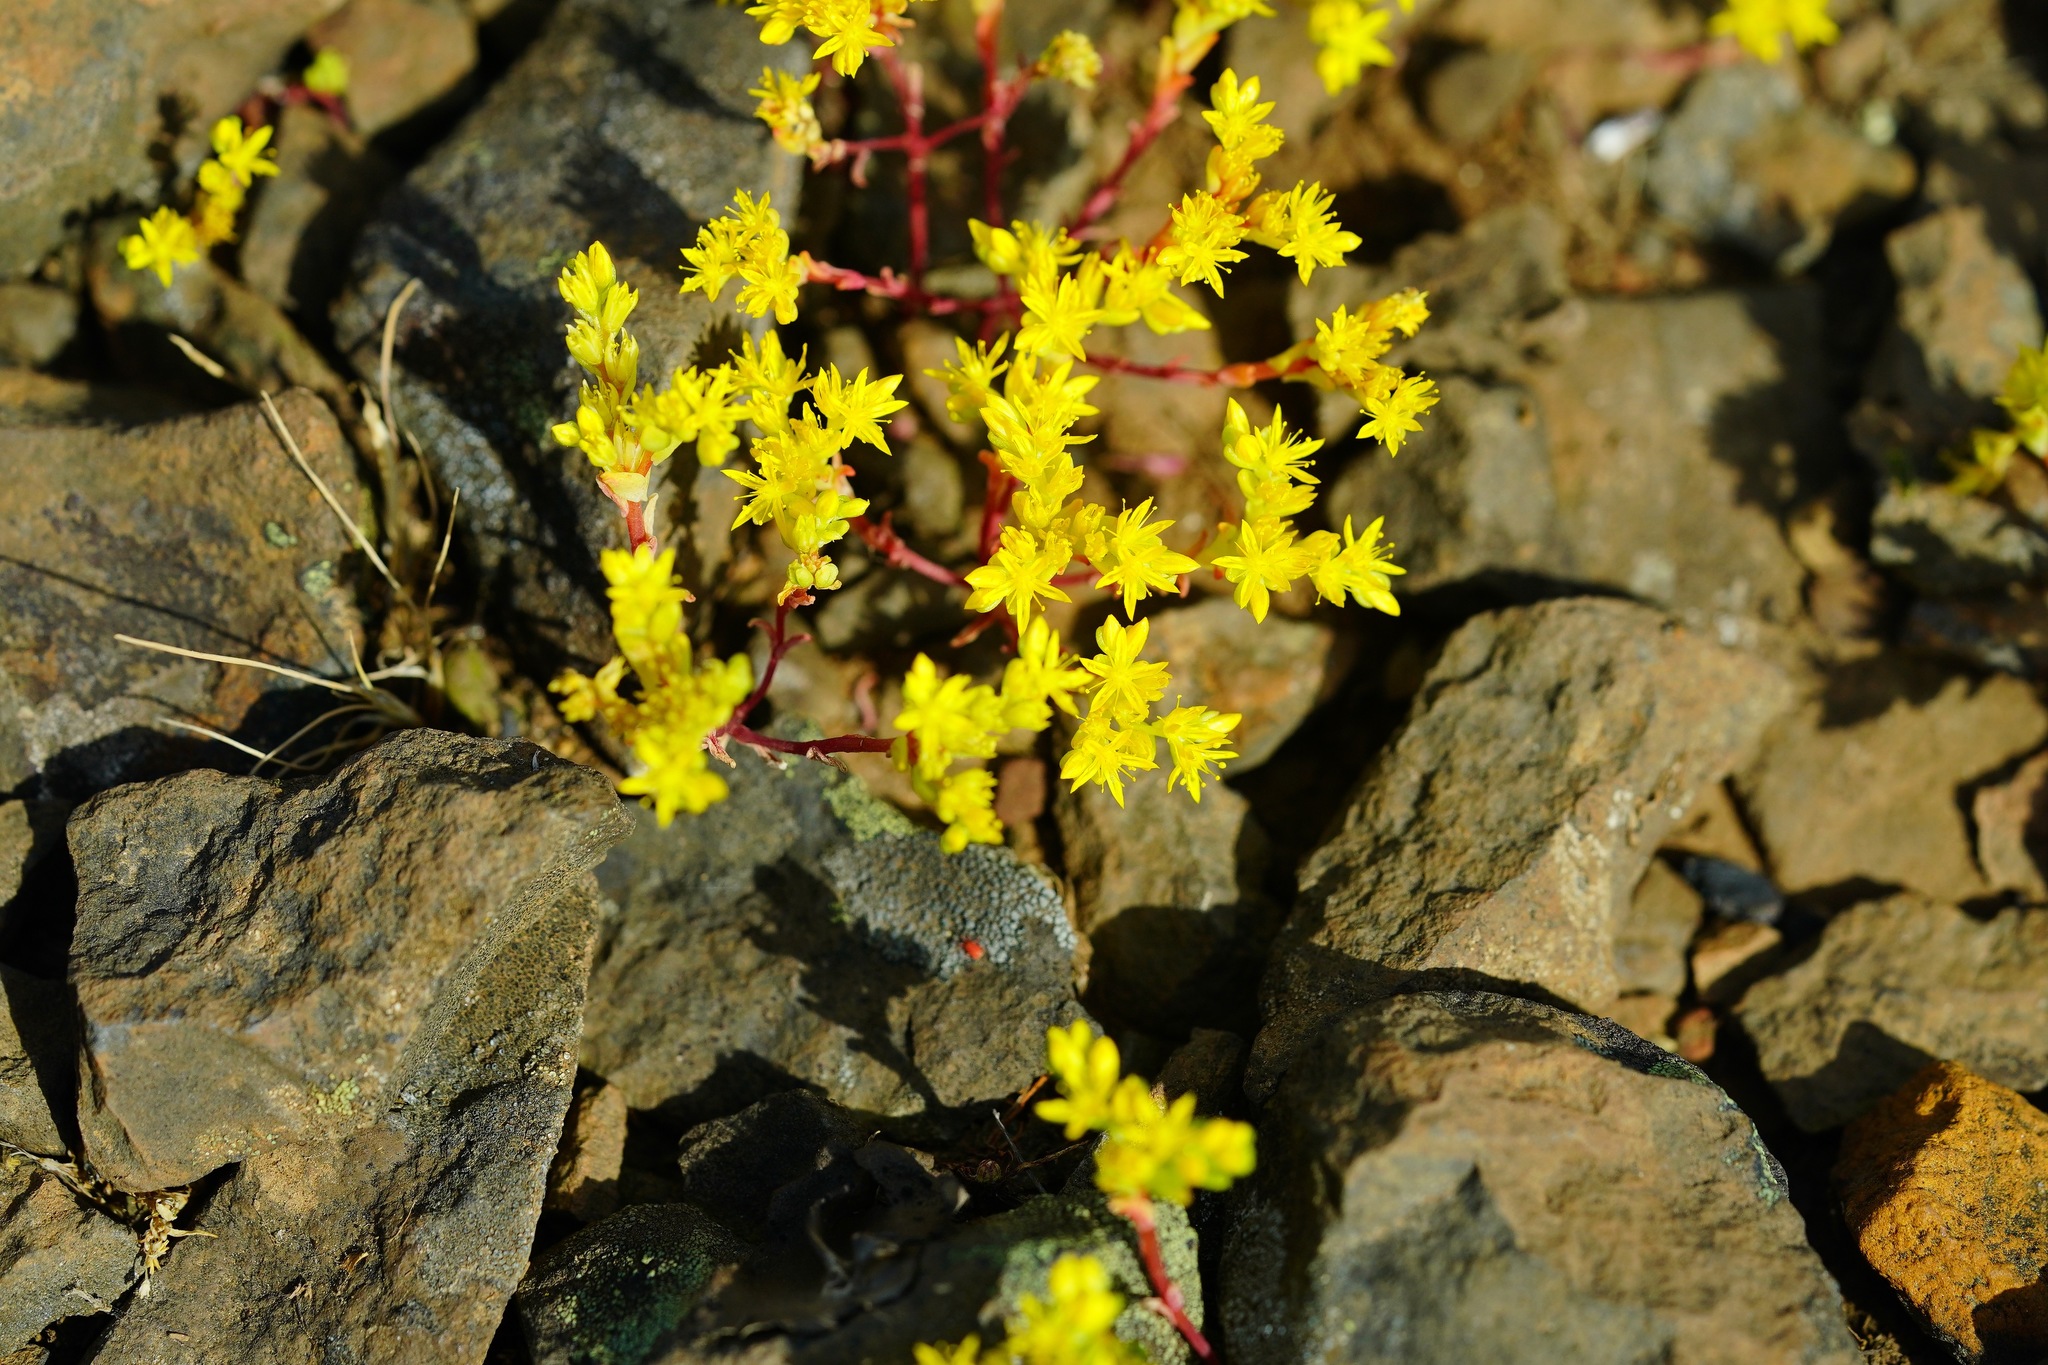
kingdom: Plantae
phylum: Tracheophyta
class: Magnoliopsida
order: Saxifragales
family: Crassulaceae
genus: Sedella
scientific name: Sedella pumila
